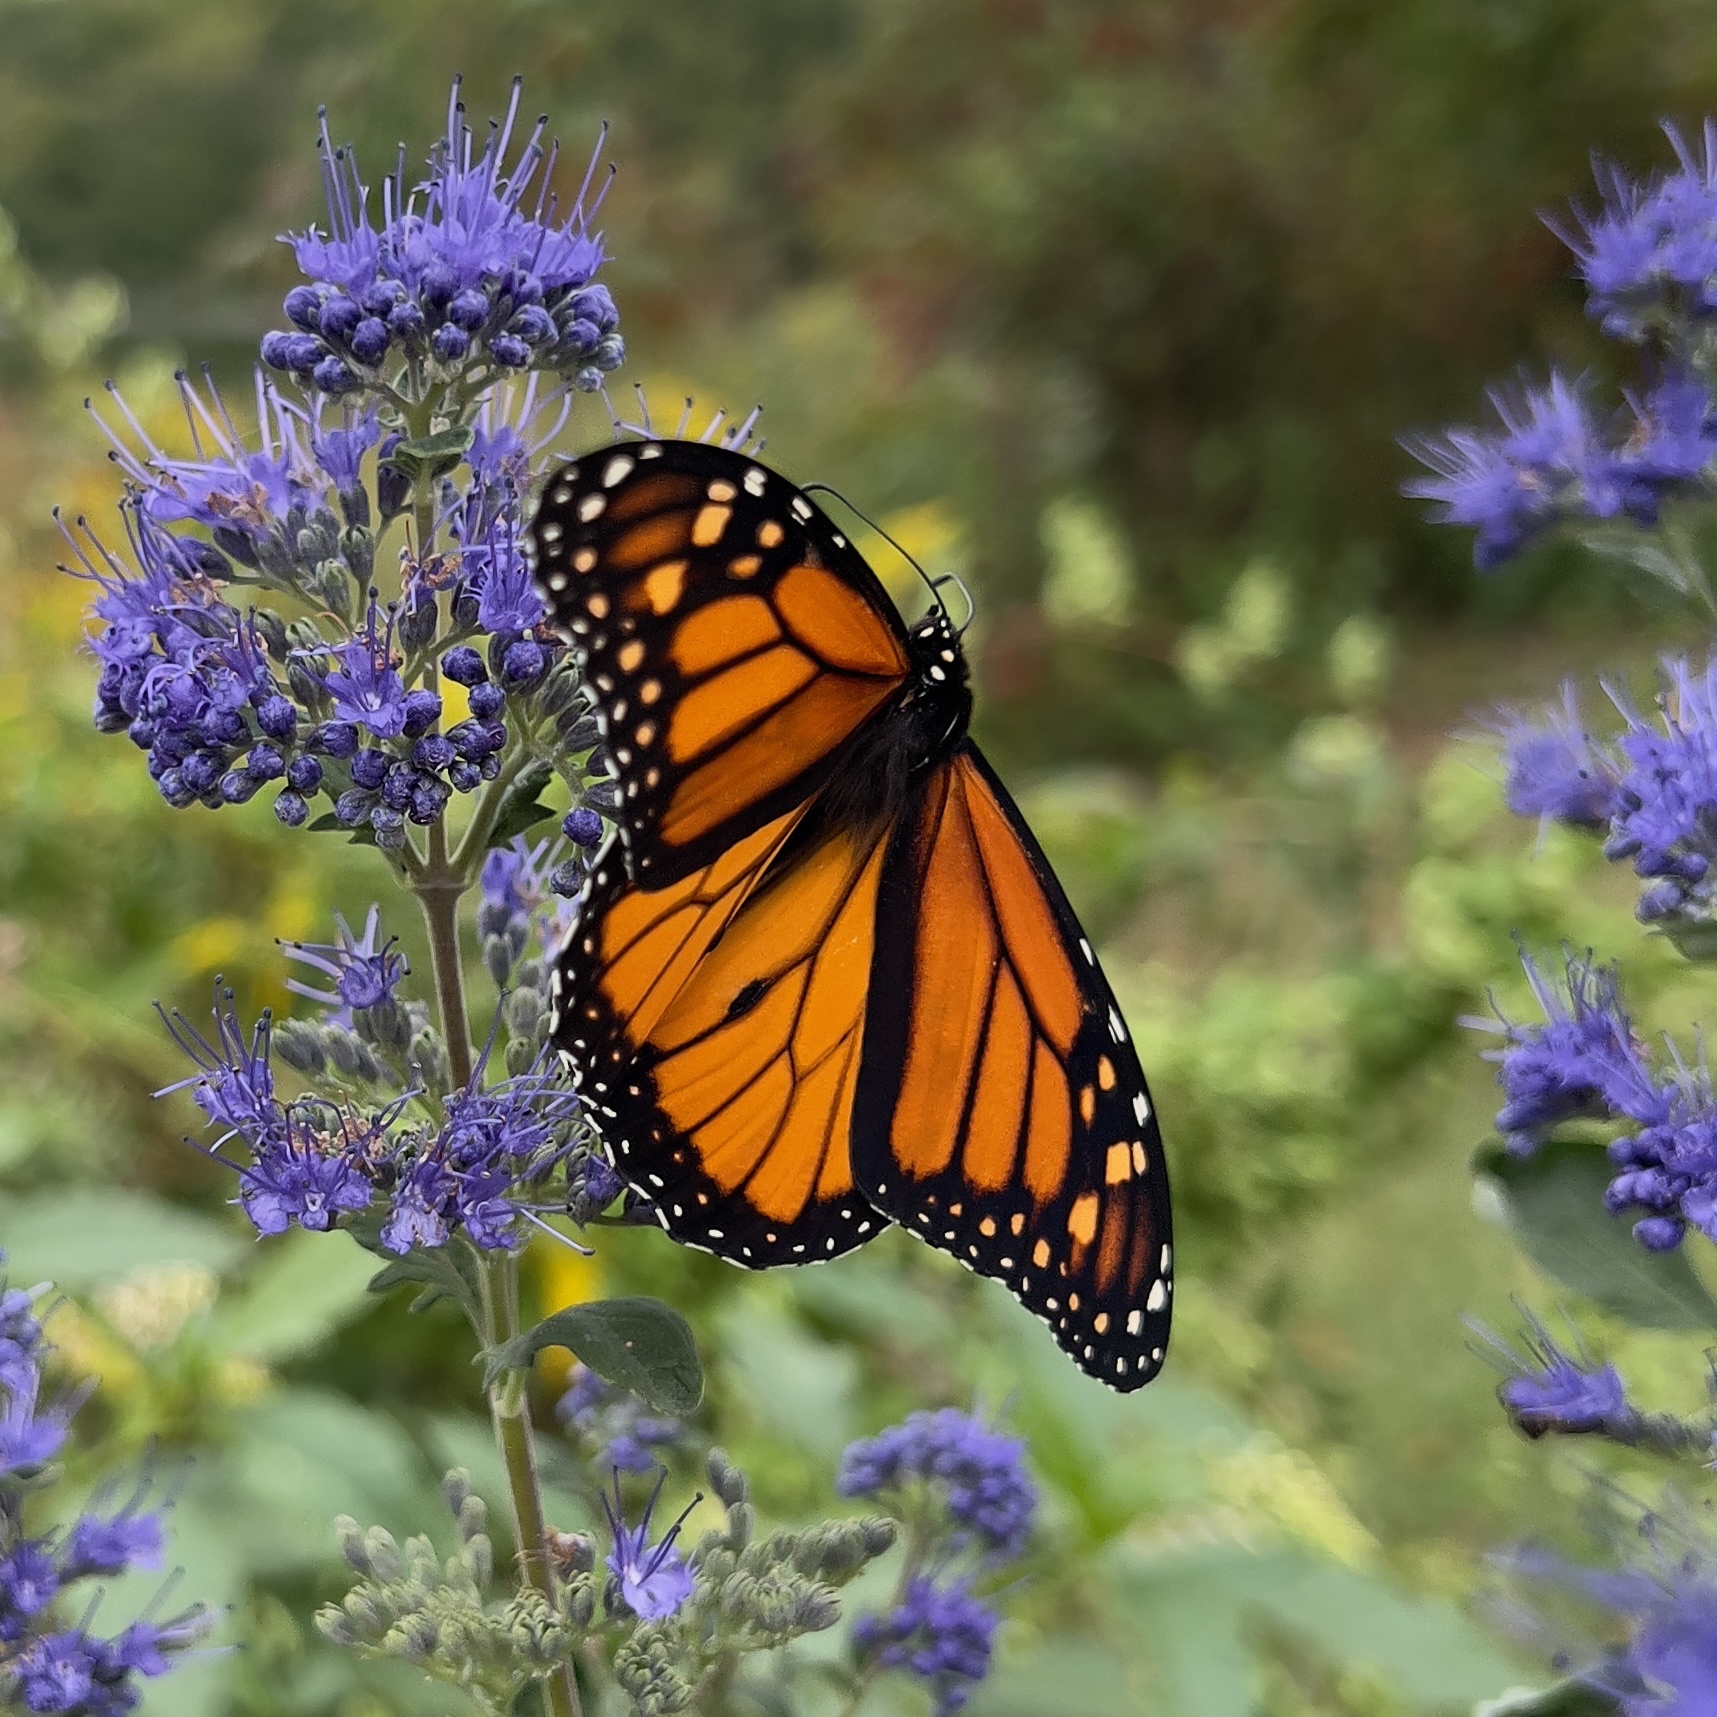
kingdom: Animalia
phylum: Arthropoda
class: Insecta
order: Lepidoptera
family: Nymphalidae
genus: Danaus
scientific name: Danaus plexippus
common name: Monarch
